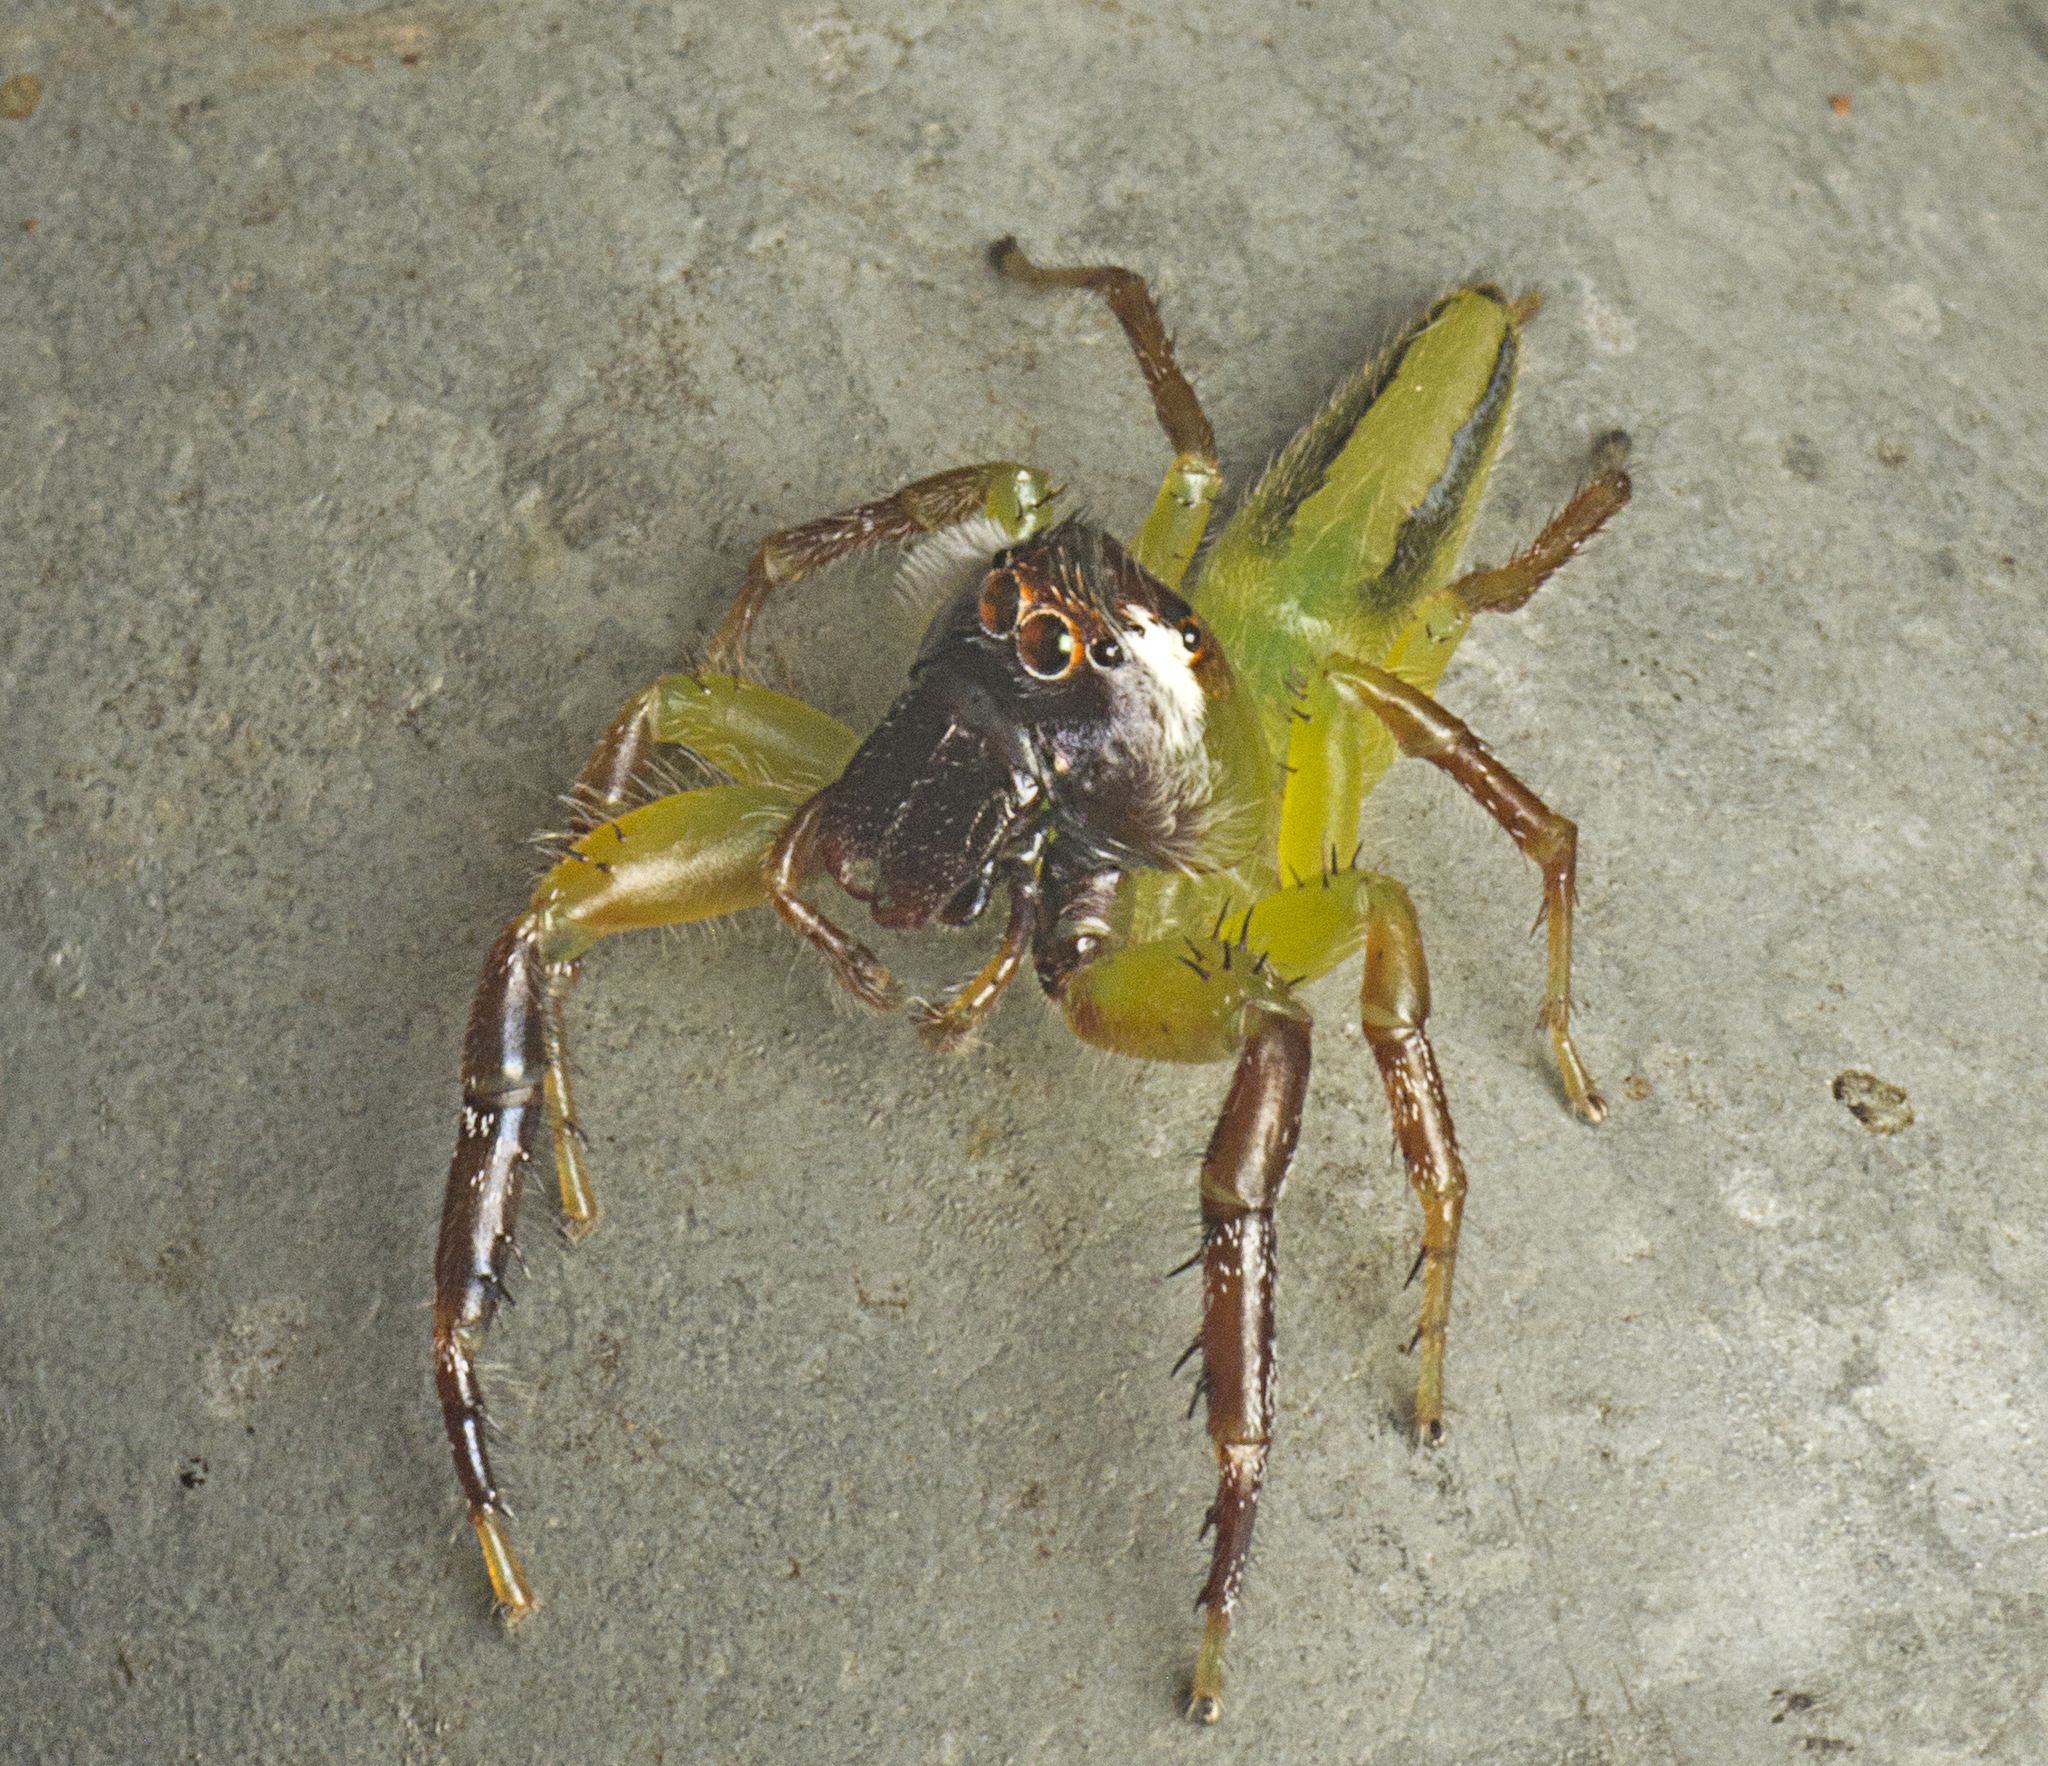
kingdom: Animalia
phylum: Arthropoda
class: Arachnida
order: Araneae
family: Salticidae
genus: Mopsus
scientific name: Mopsus mormon
